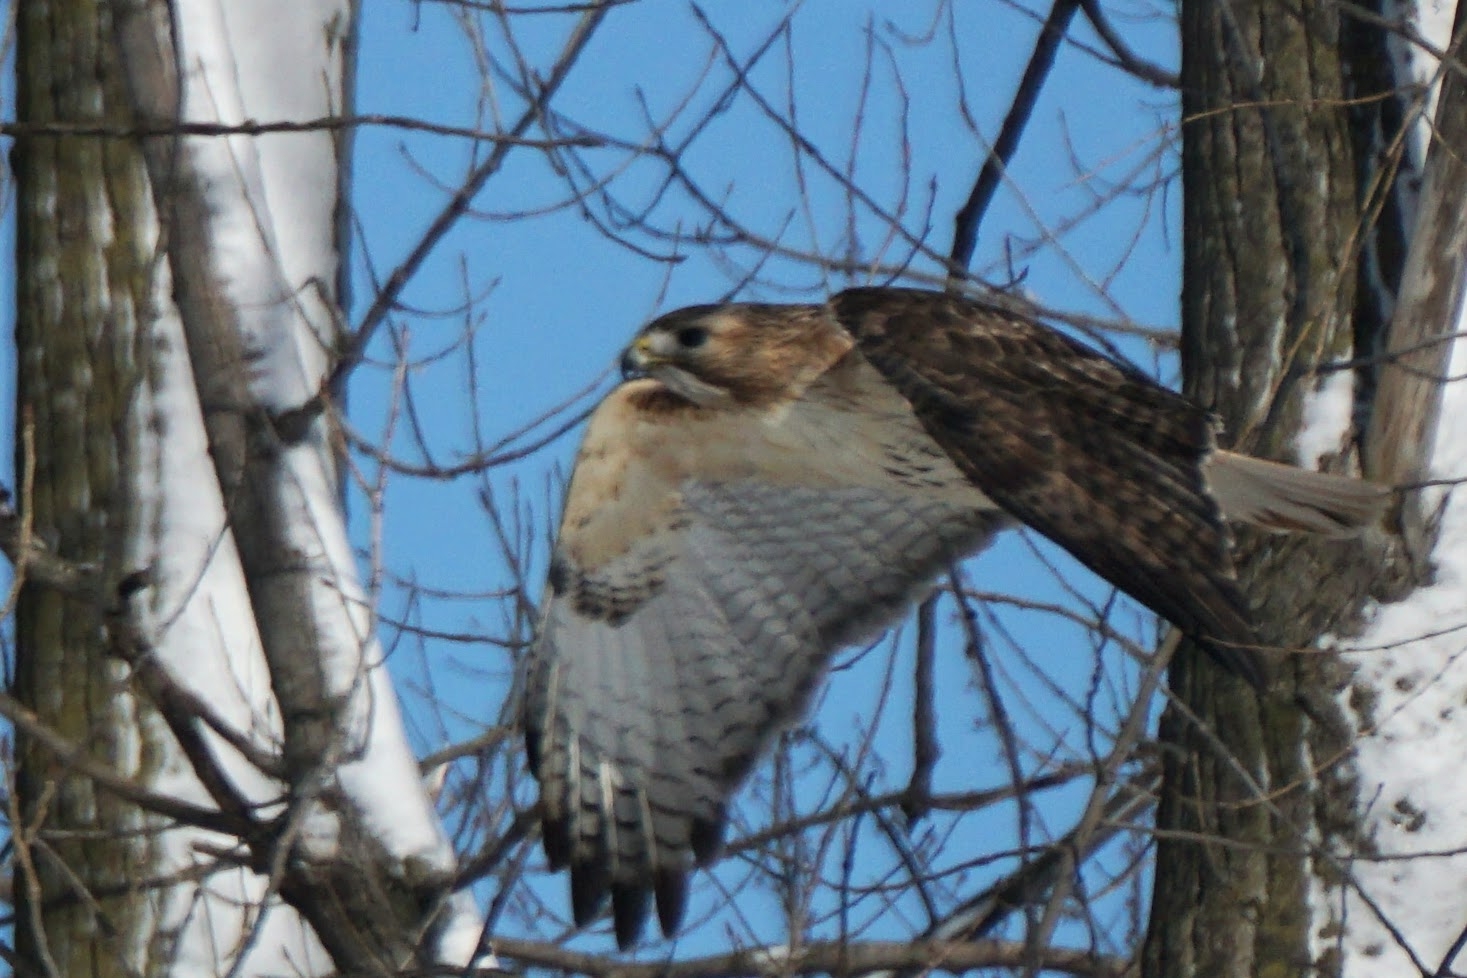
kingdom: Animalia
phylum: Chordata
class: Aves
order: Accipitriformes
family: Accipitridae
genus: Buteo
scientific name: Buteo jamaicensis
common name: Red-tailed hawk
